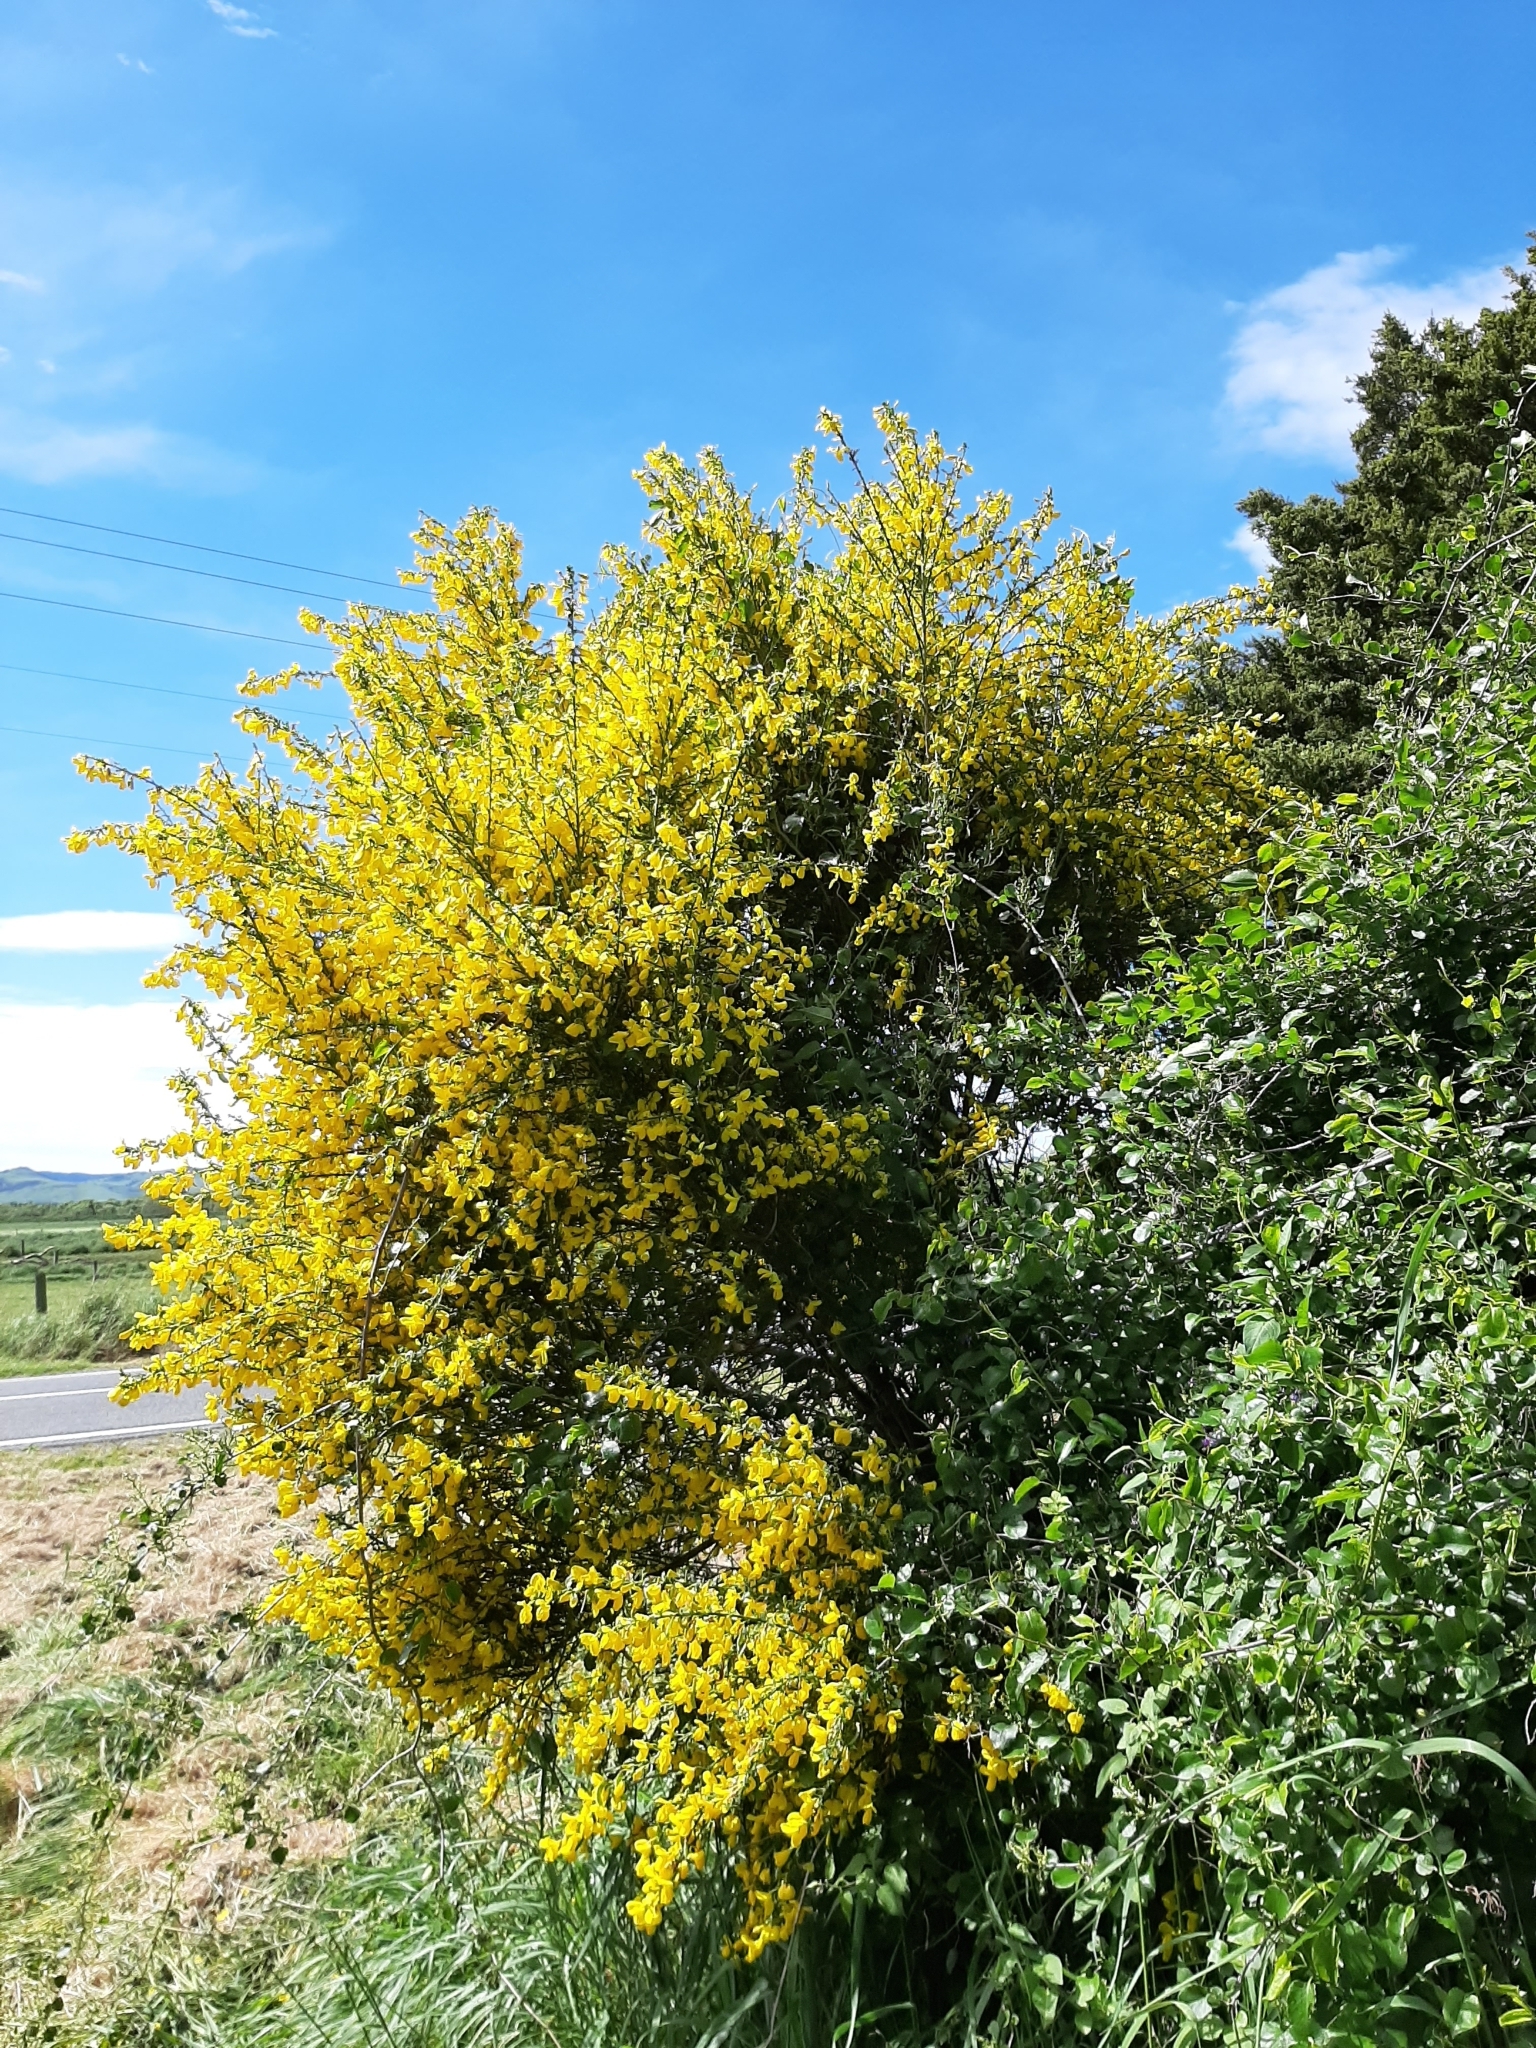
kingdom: Plantae
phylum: Tracheophyta
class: Magnoliopsida
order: Fabales
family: Fabaceae
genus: Cytisus
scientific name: Cytisus scoparius
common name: Scotch broom
